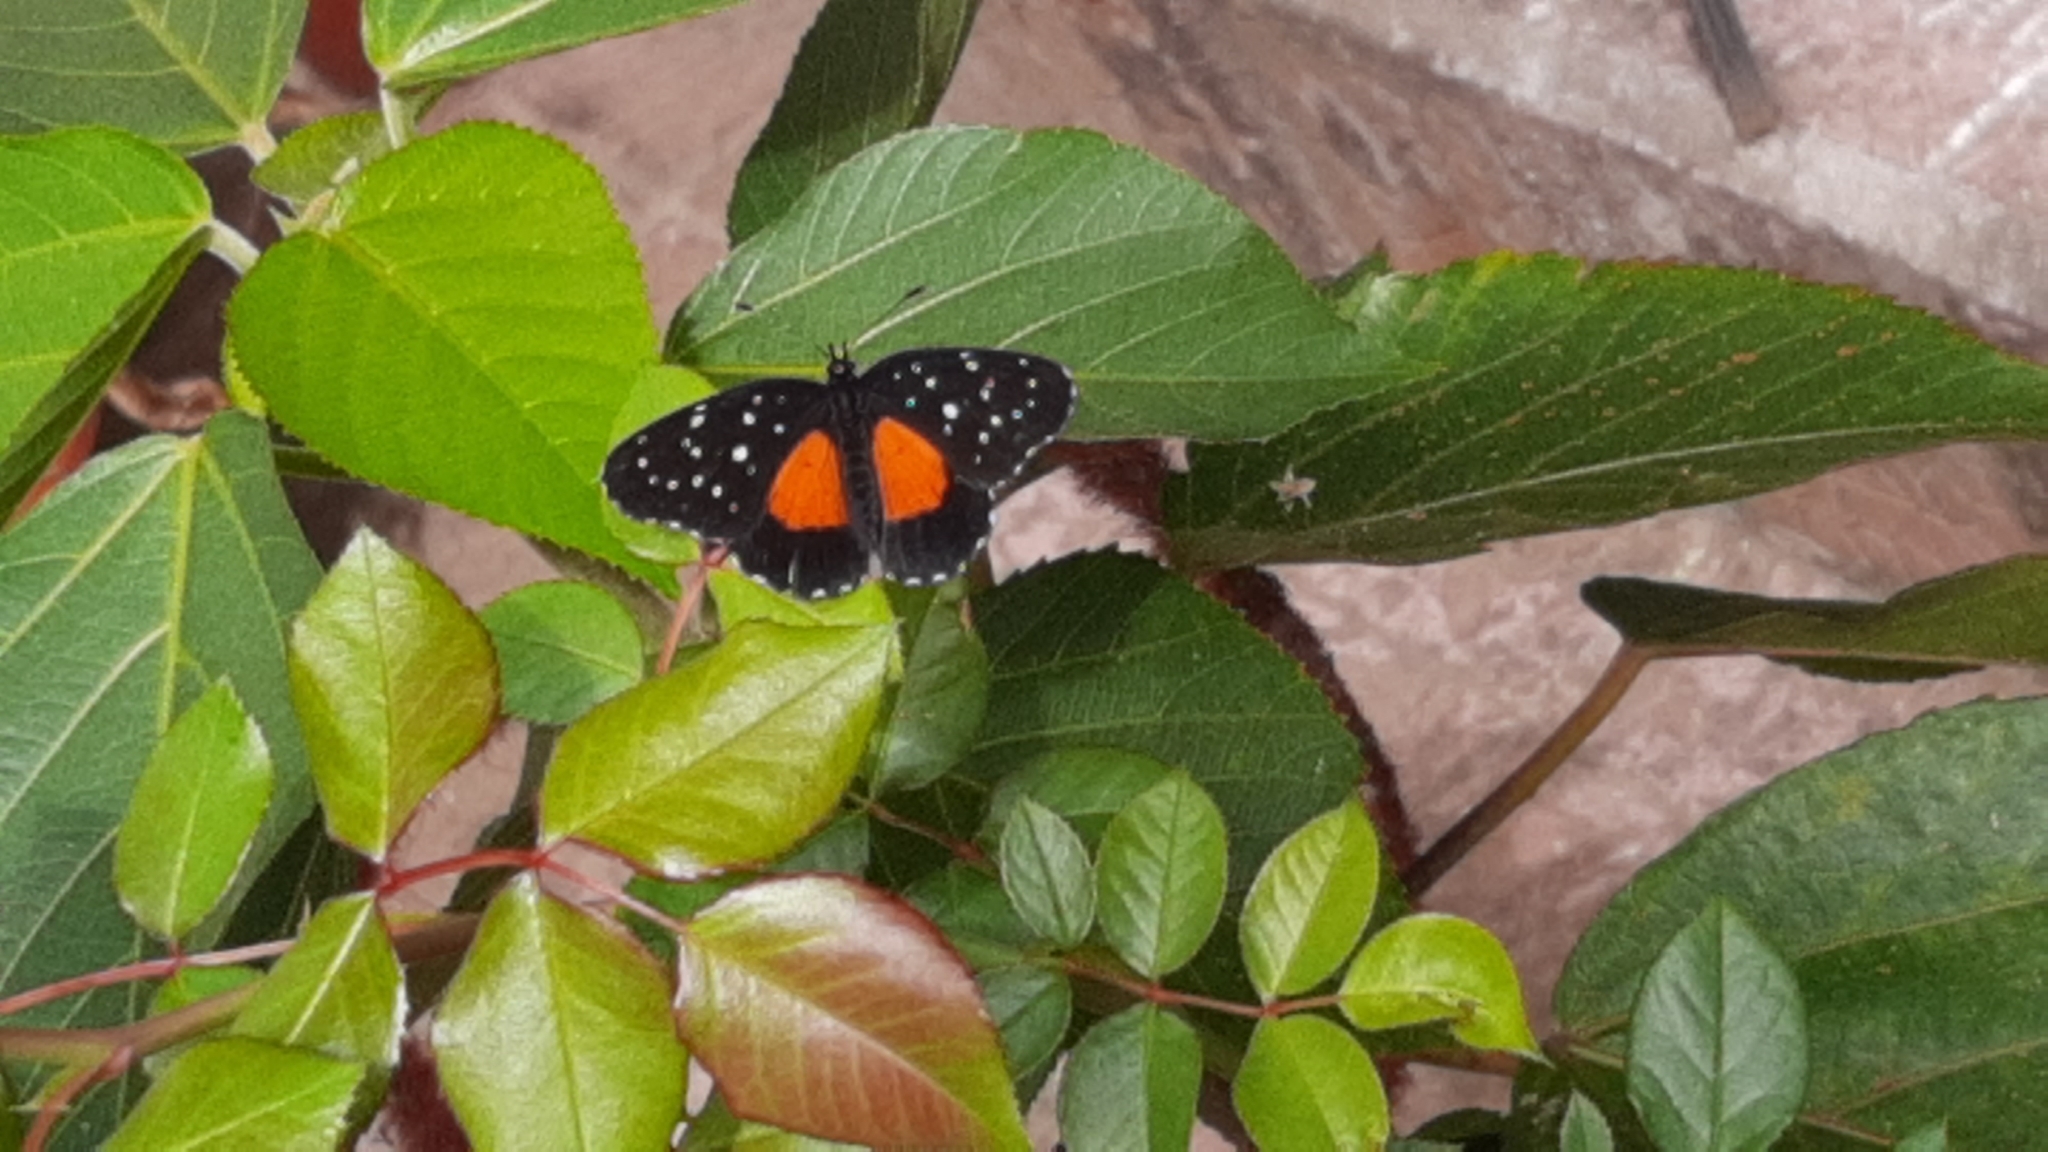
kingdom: Animalia
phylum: Arthropoda
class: Insecta
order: Lepidoptera
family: Nymphalidae
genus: Chlosyne
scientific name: Chlosyne janais
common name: Crimson patch
